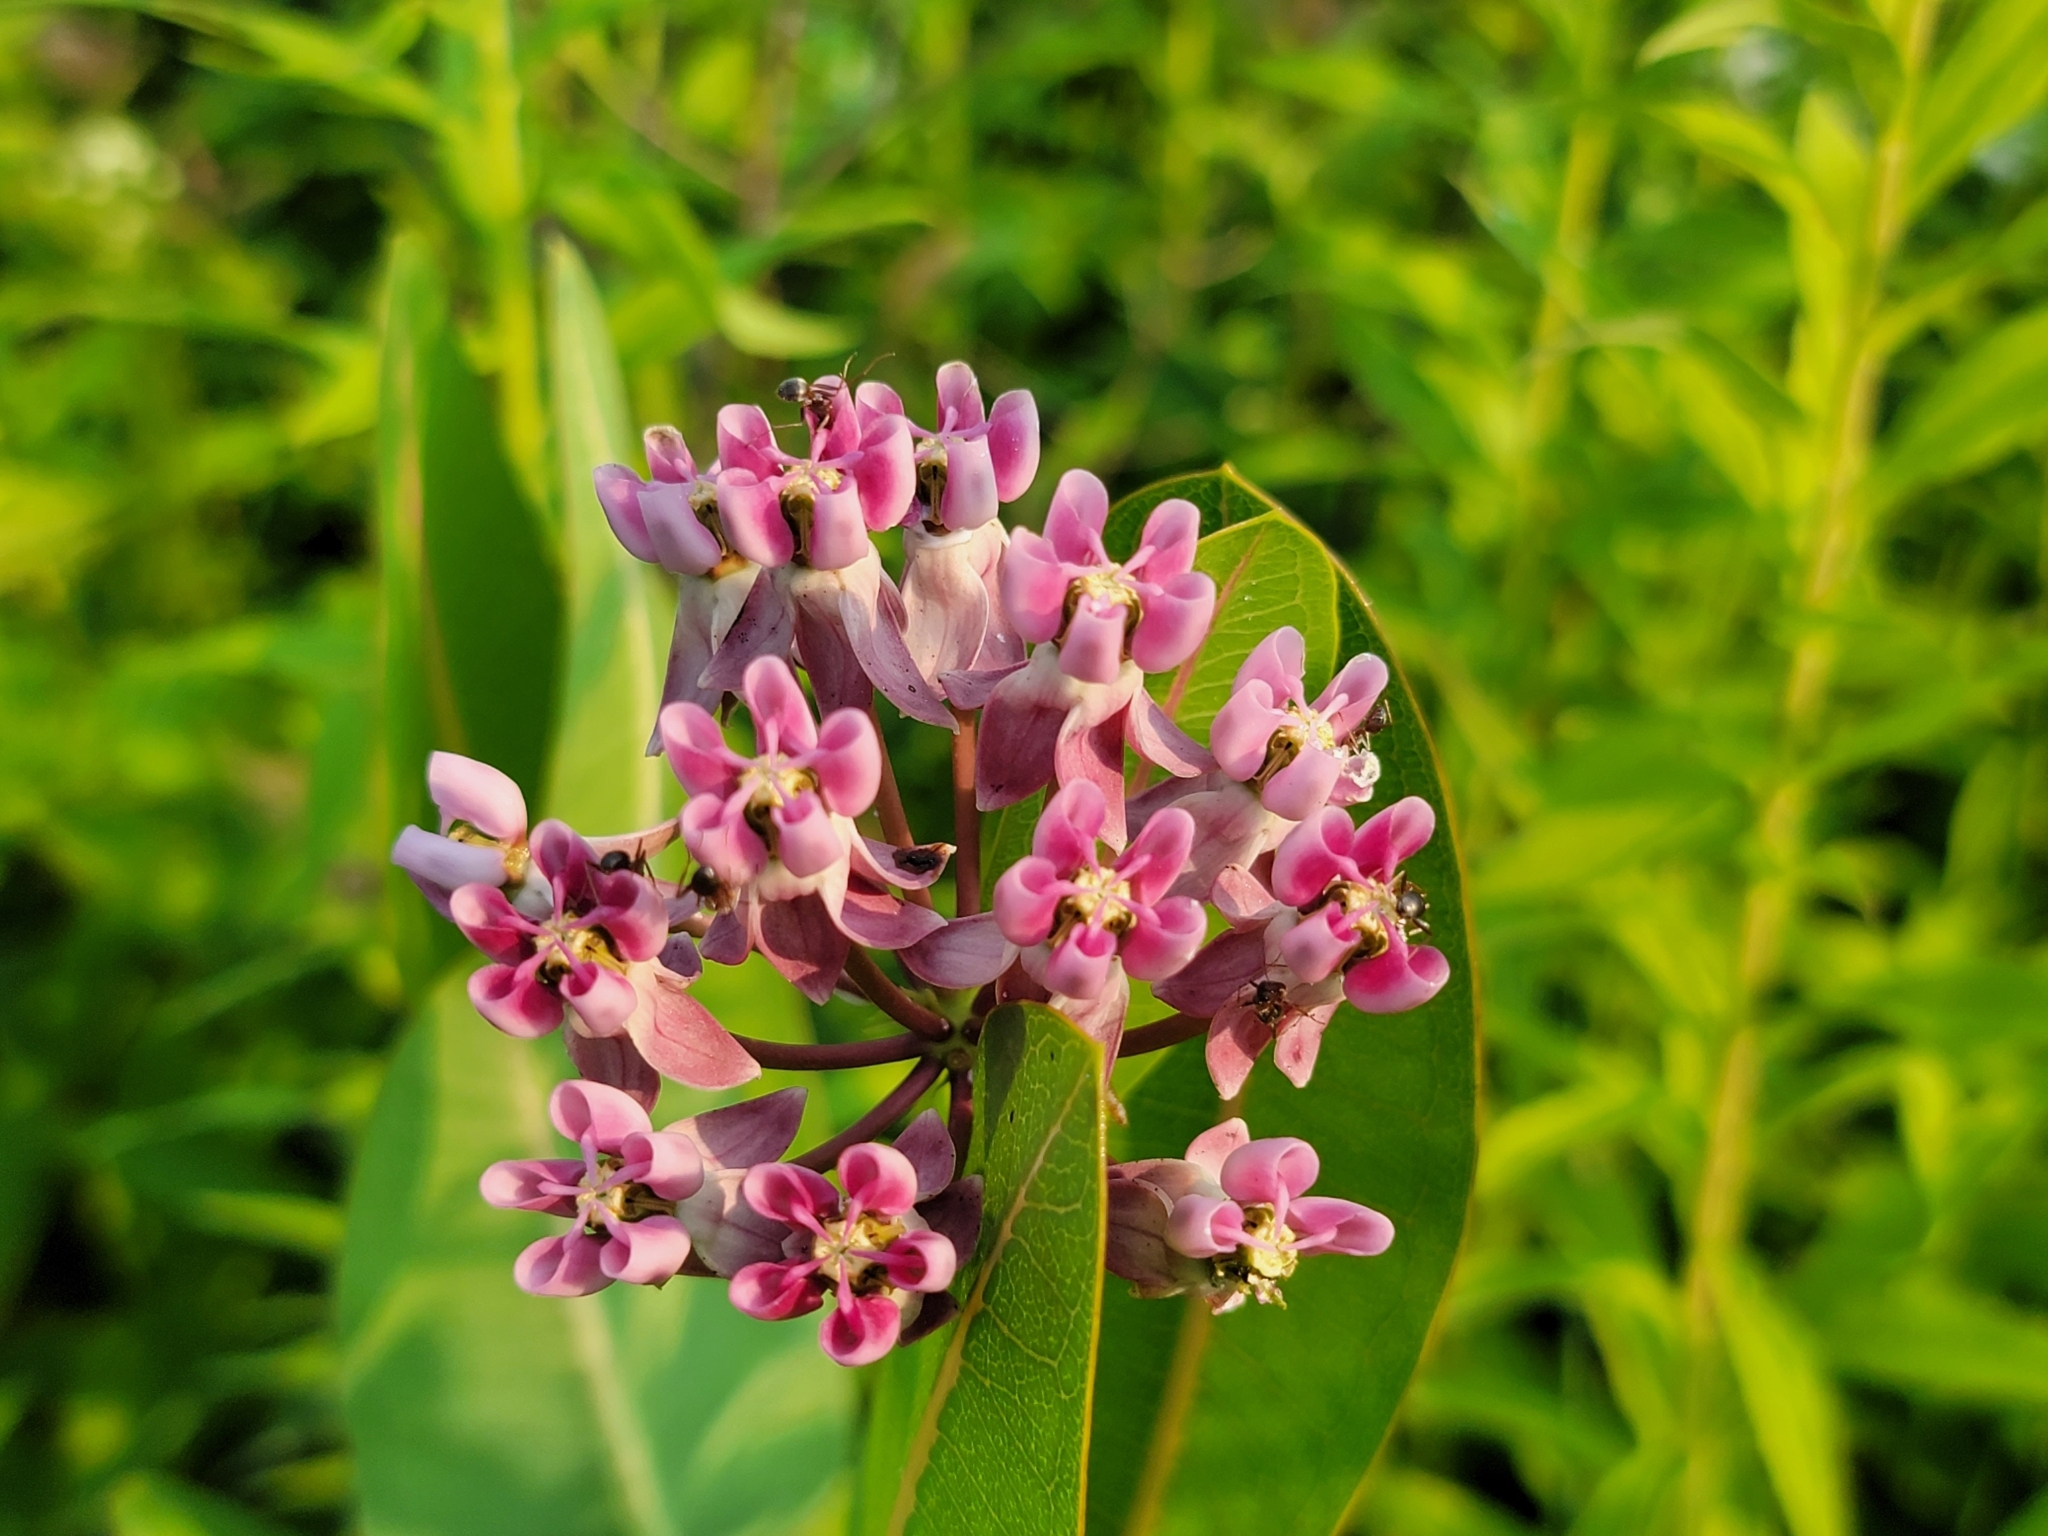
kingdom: Plantae
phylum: Tracheophyta
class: Magnoliopsida
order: Gentianales
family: Apocynaceae
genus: Asclepias
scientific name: Asclepias sullivantii
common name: Prairie milkweed
